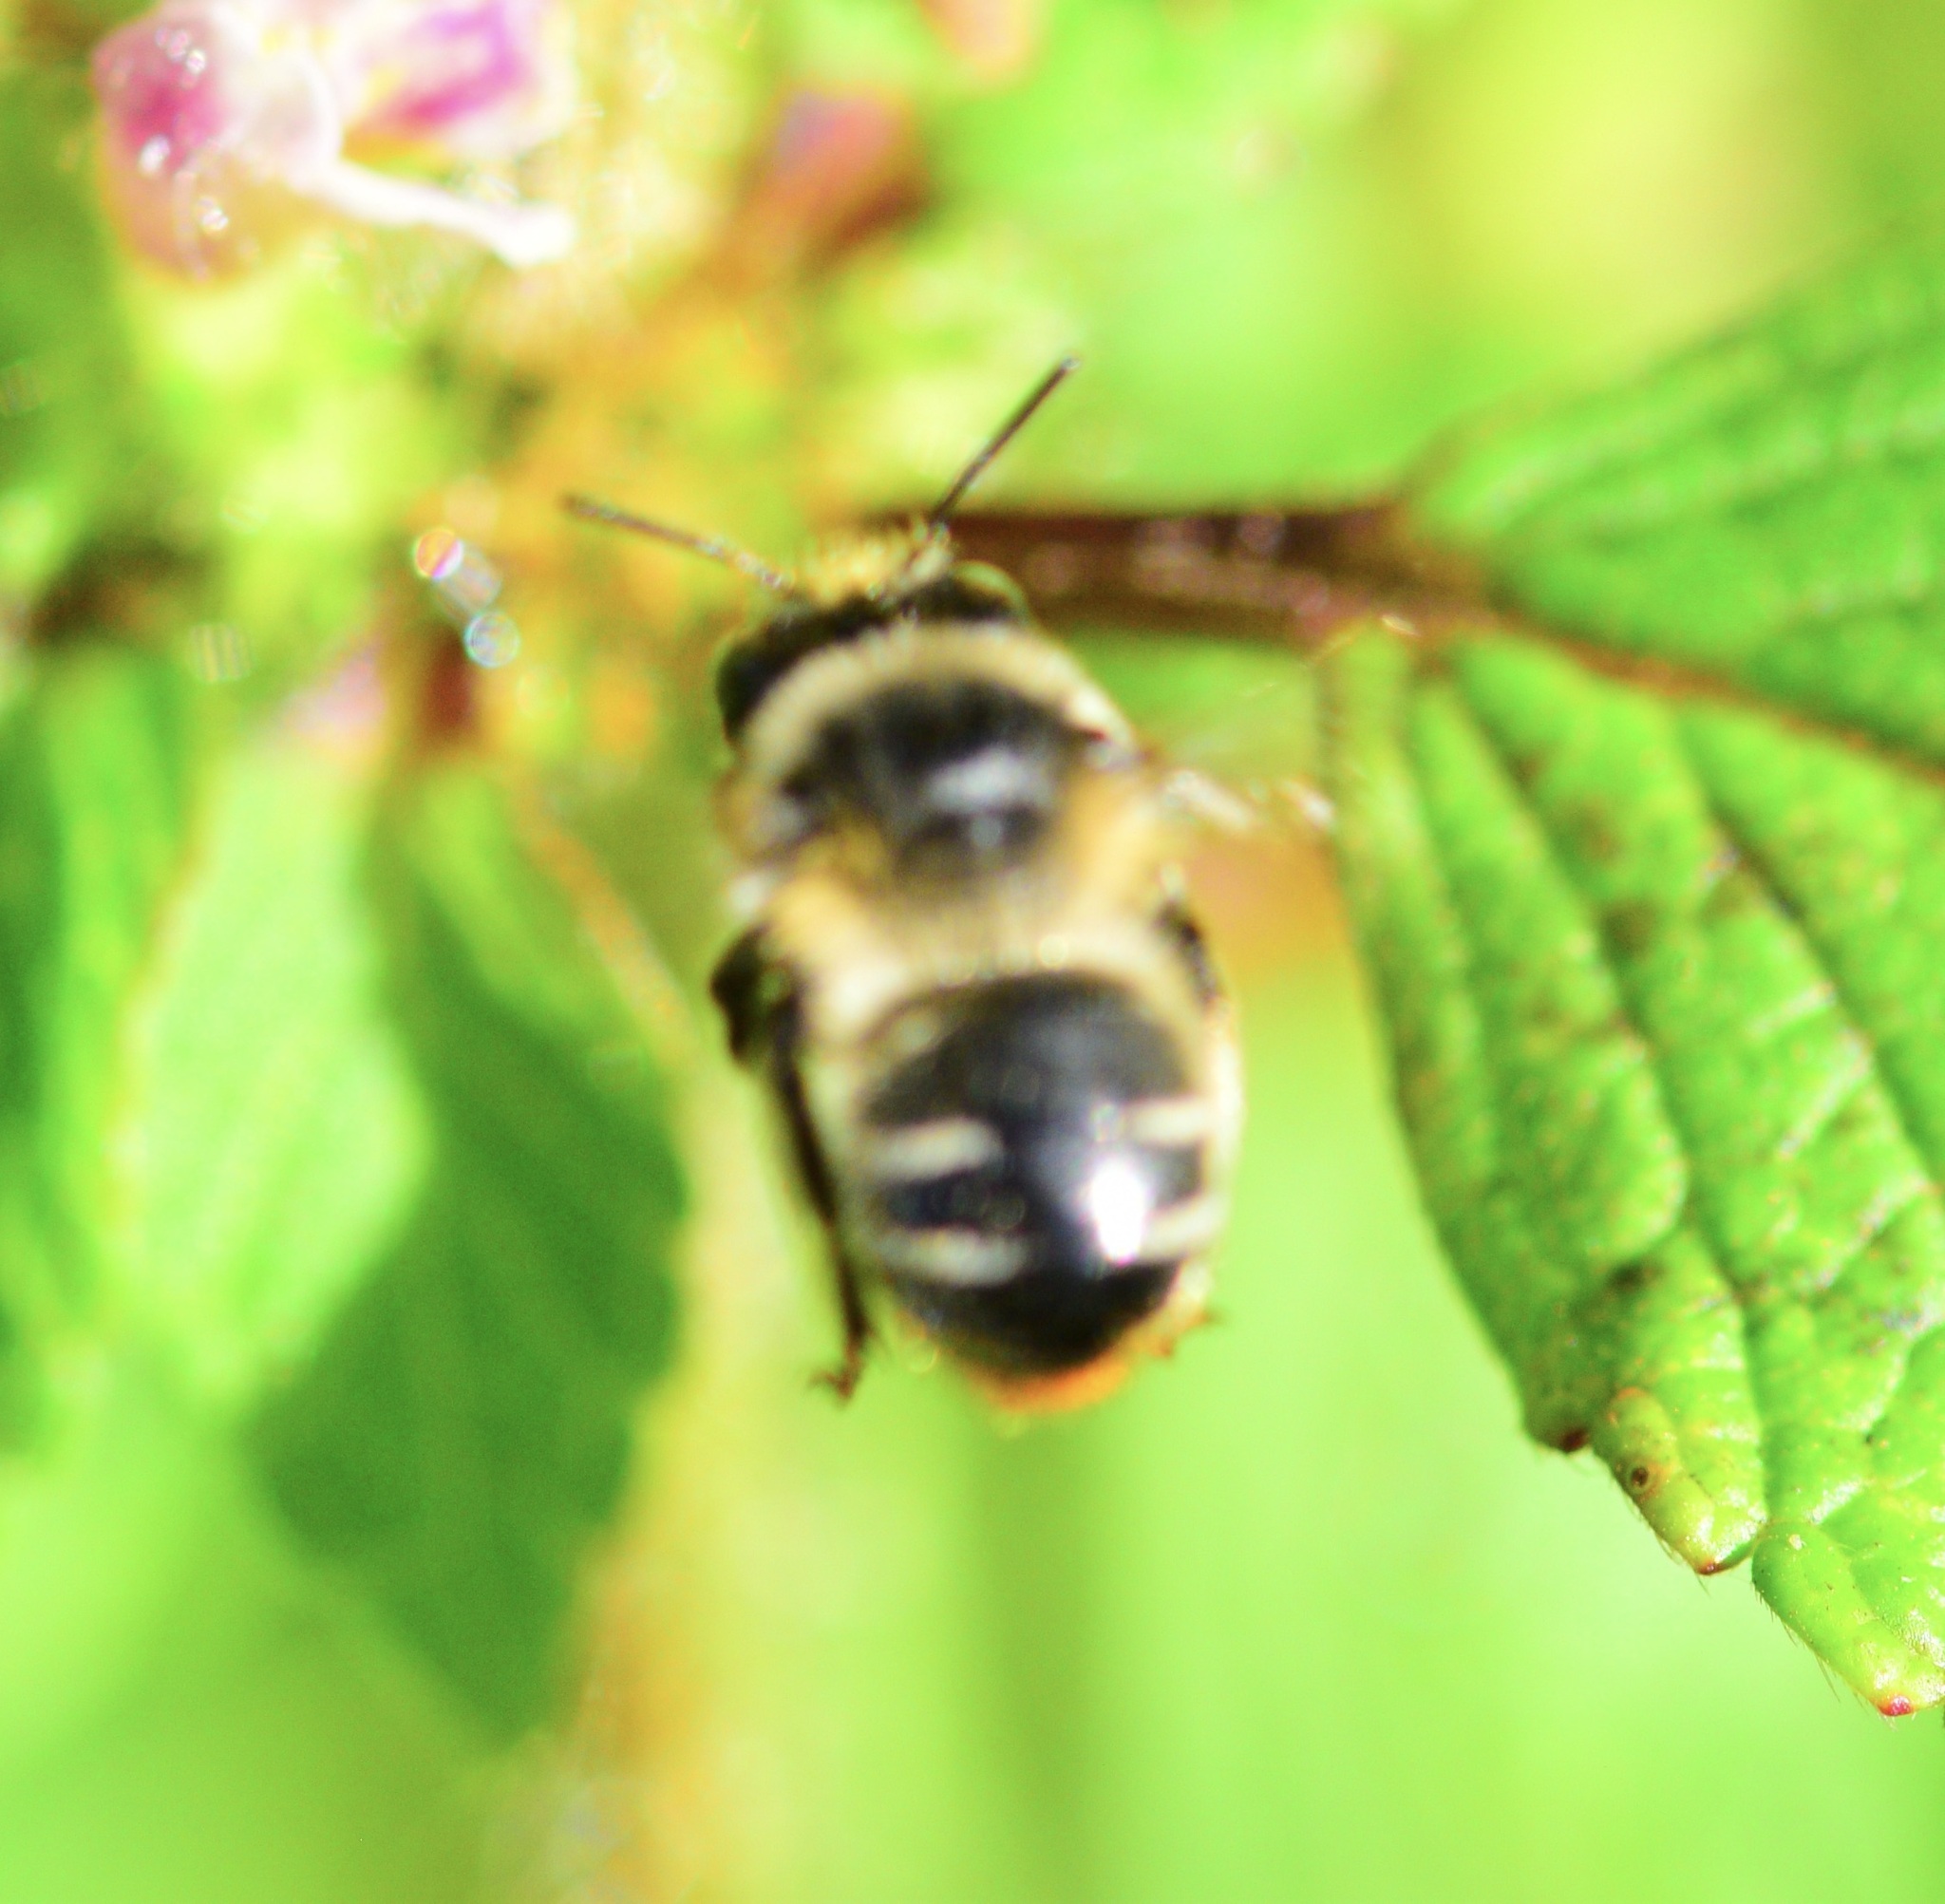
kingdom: Animalia
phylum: Arthropoda
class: Insecta
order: Hymenoptera
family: Apidae
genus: Anthophora
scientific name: Anthophora terminalis
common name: Orange-tipped wood-digger bee
